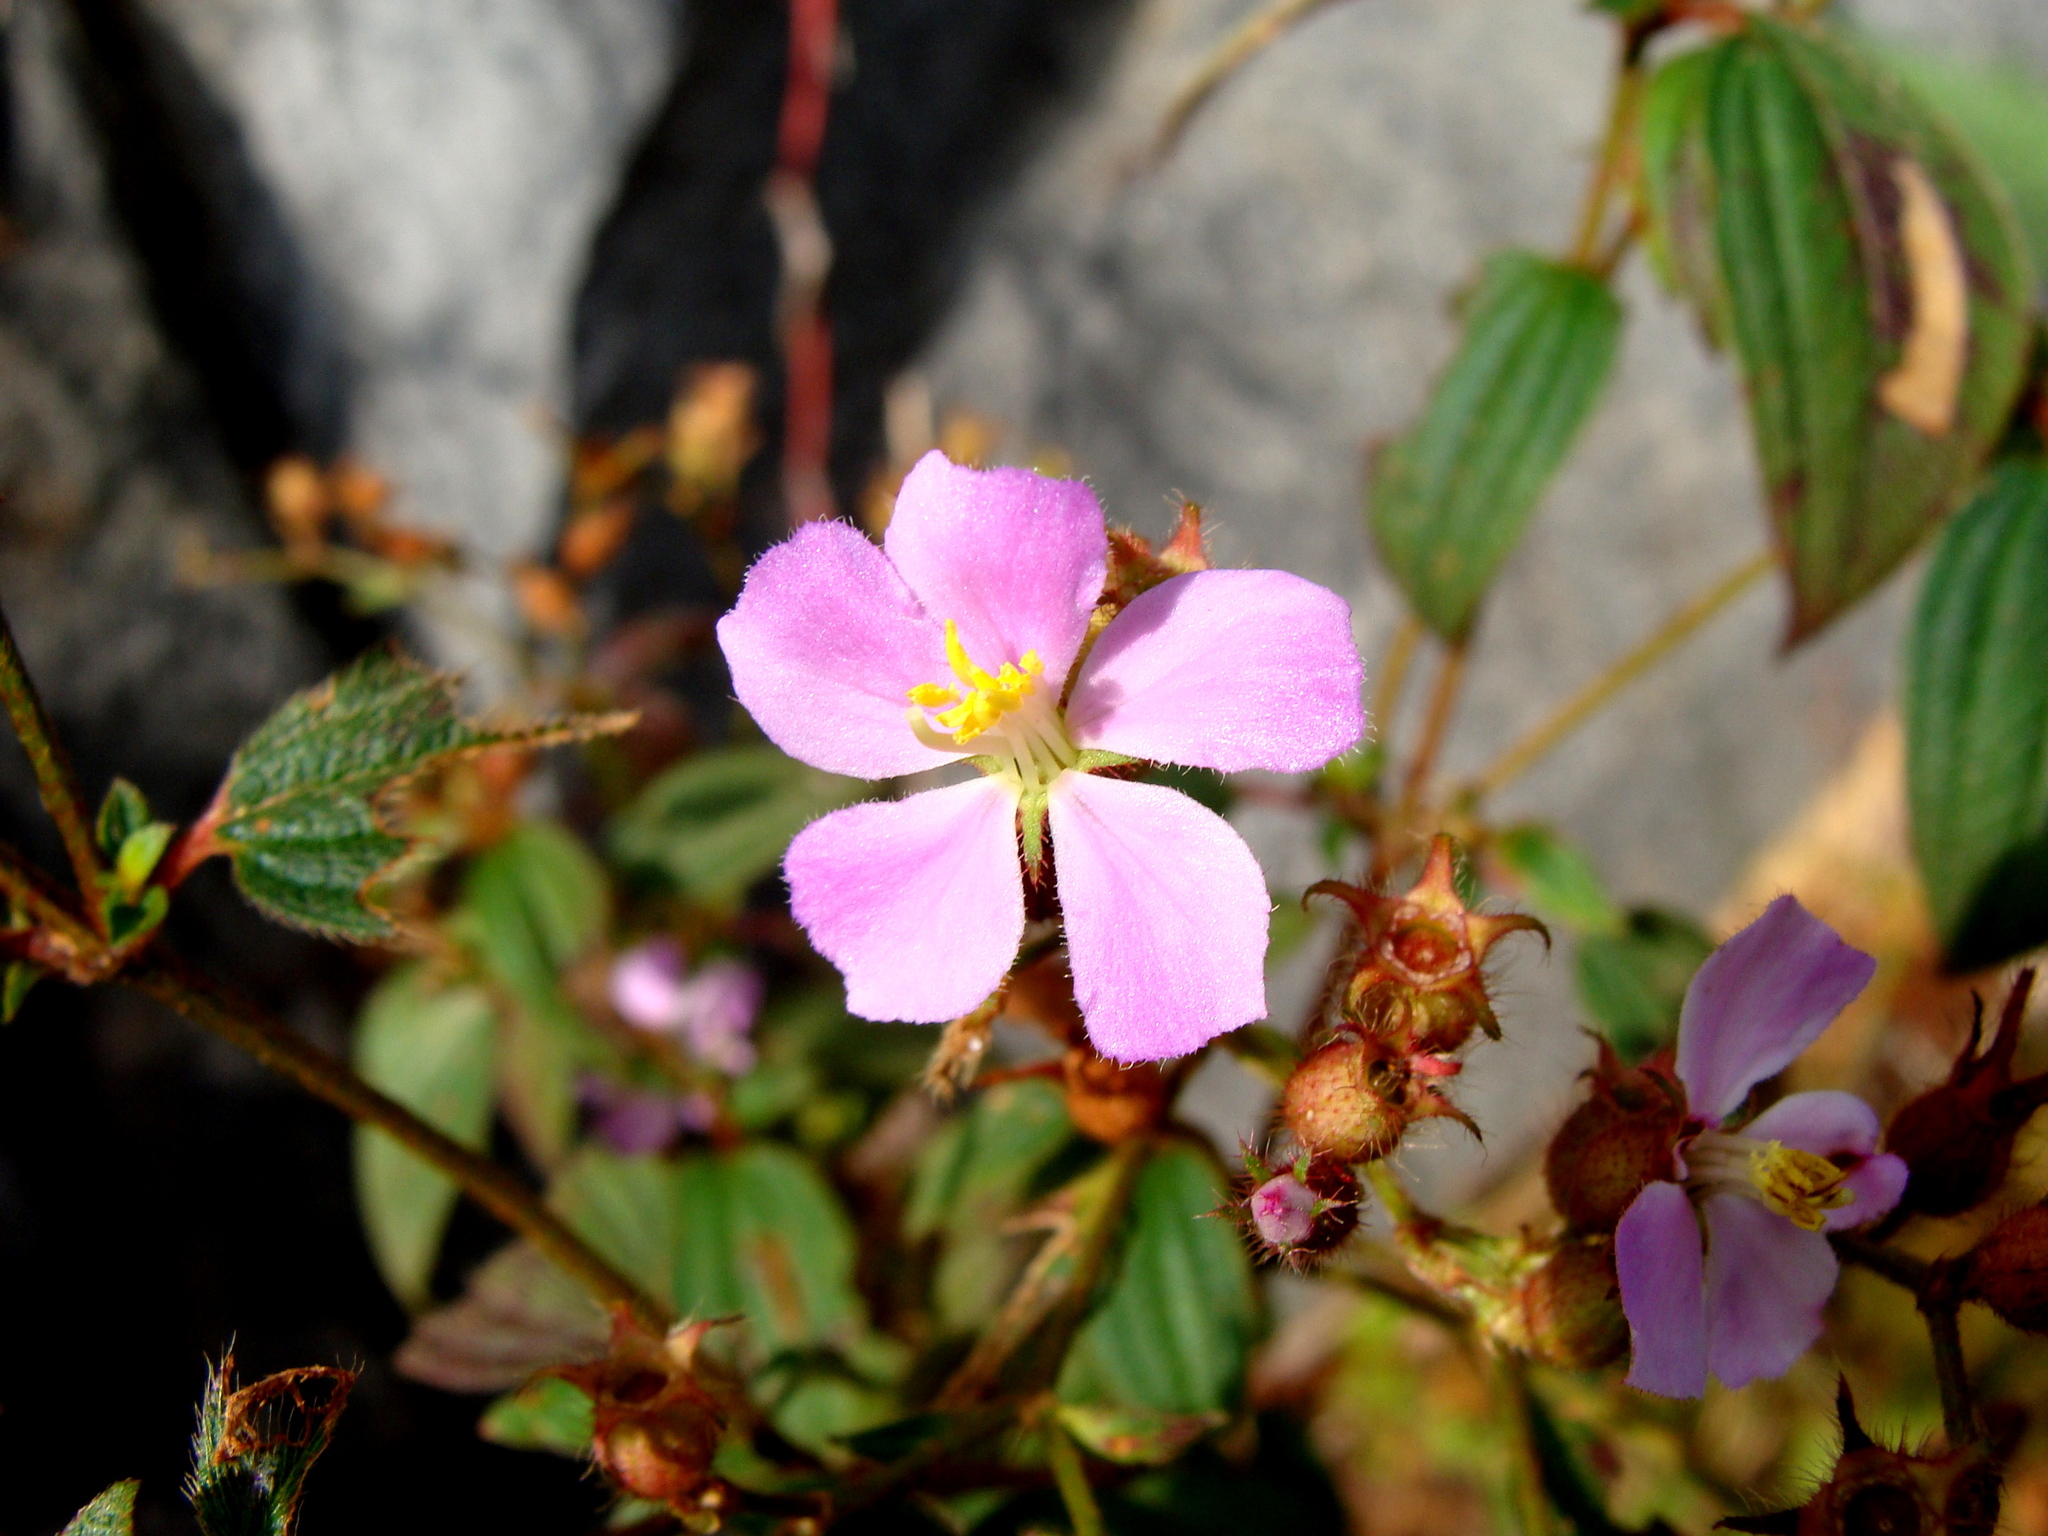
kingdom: Plantae
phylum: Tracheophyta
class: Magnoliopsida
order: Myrtales
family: Melastomataceae
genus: Chaetogastra
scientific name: Chaetogastra naudiniana
